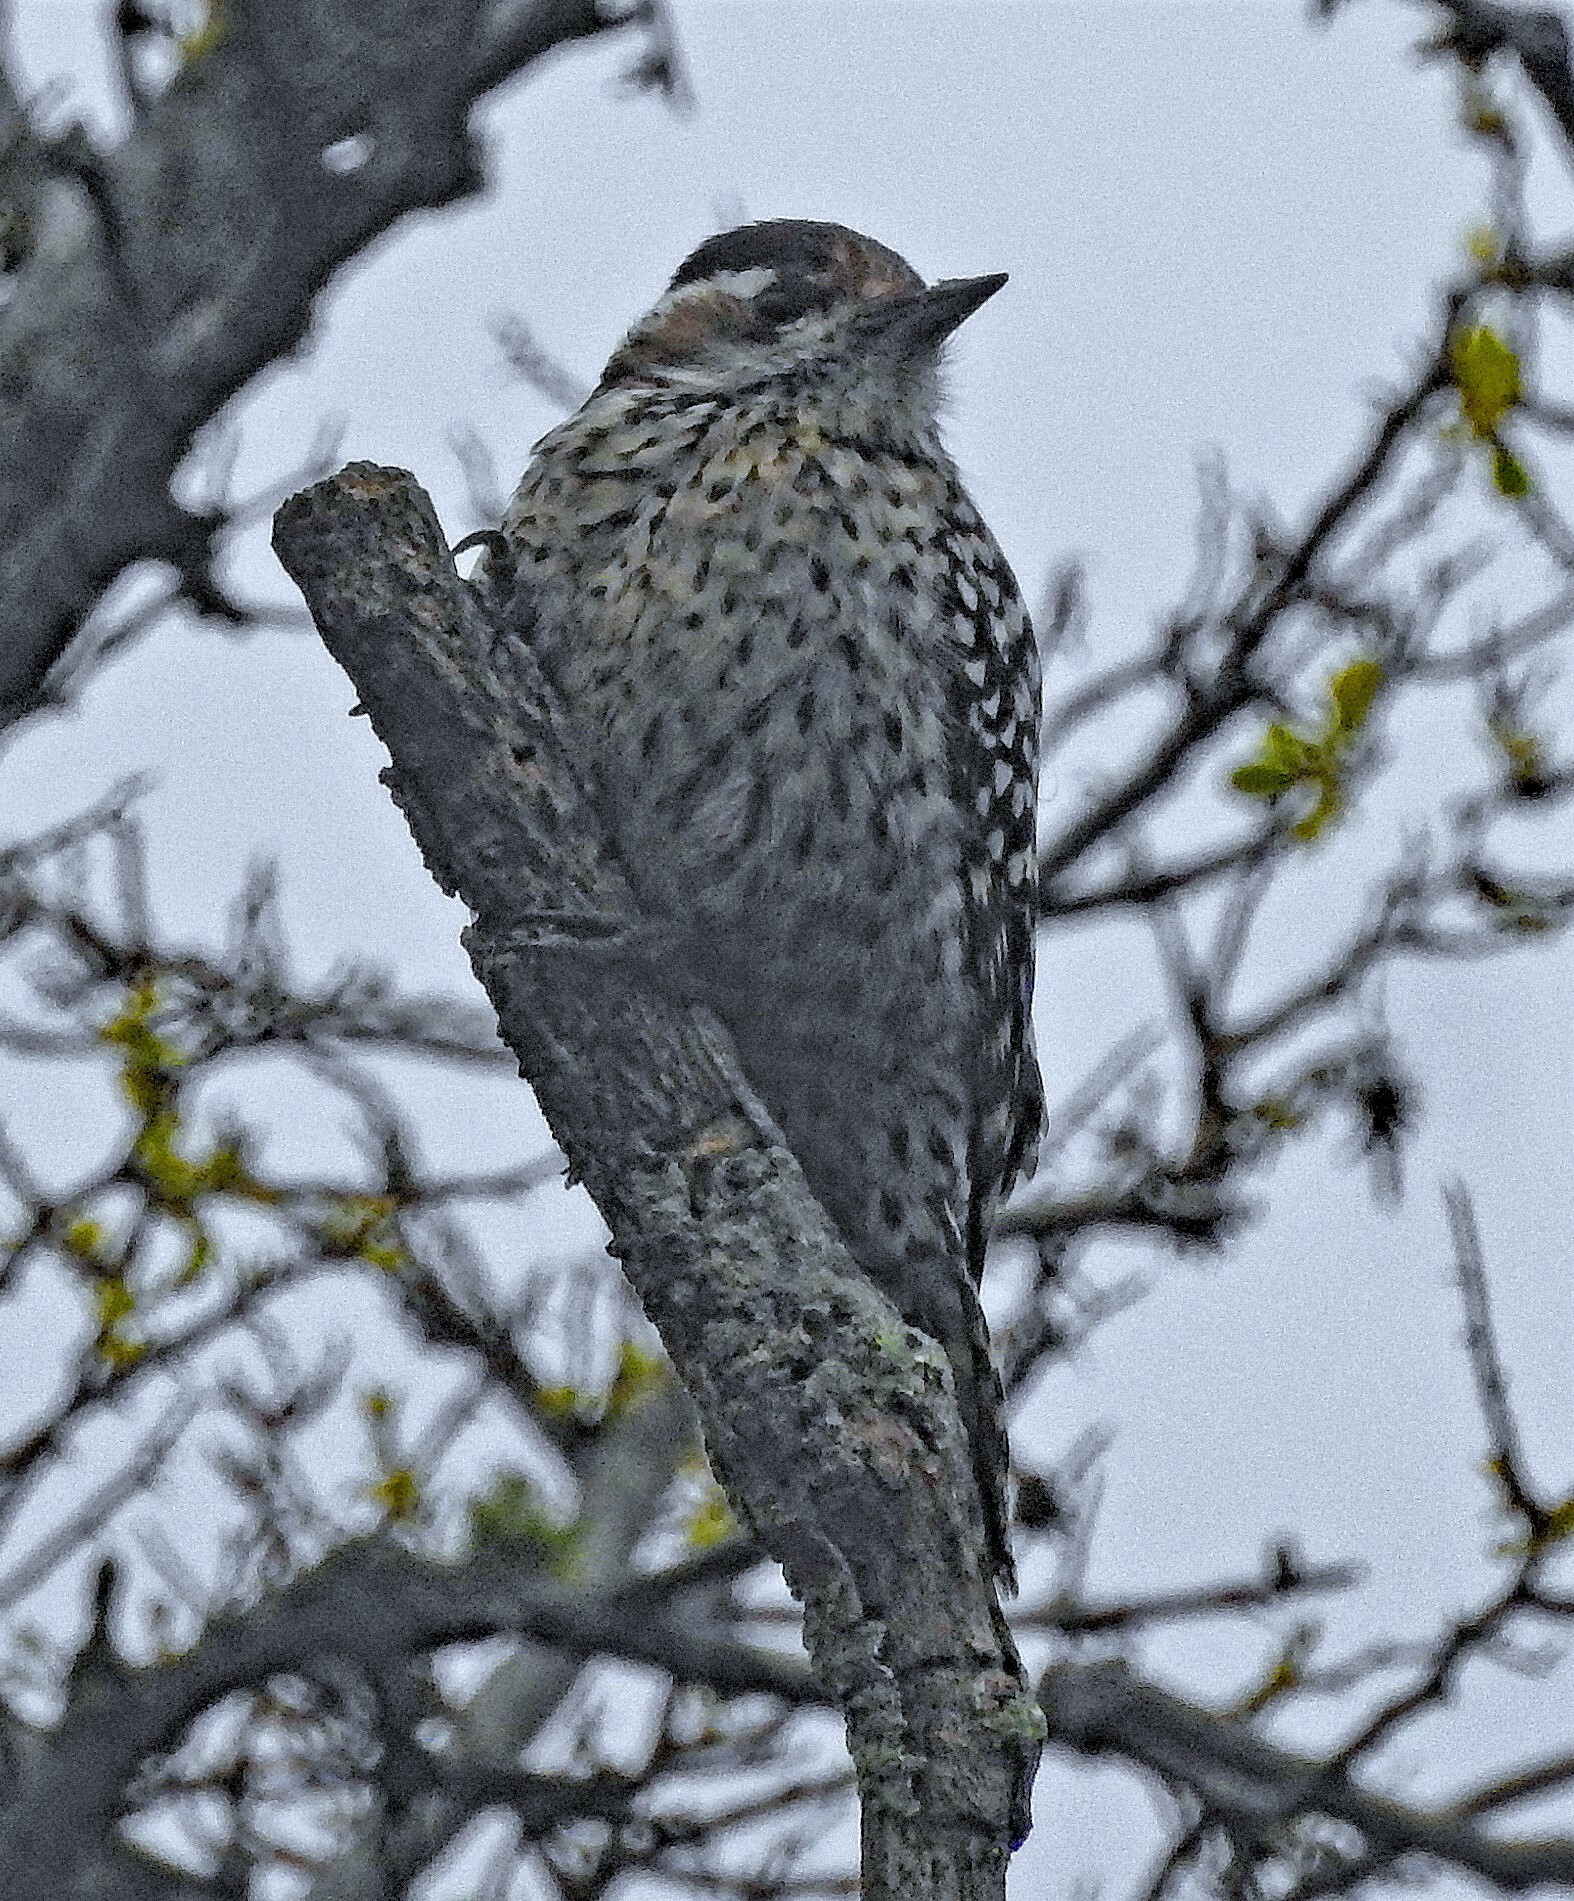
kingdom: Animalia
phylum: Chordata
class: Aves
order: Piciformes
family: Picidae
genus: Veniliornis
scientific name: Veniliornis mixtus
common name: Checkered woodpecker
